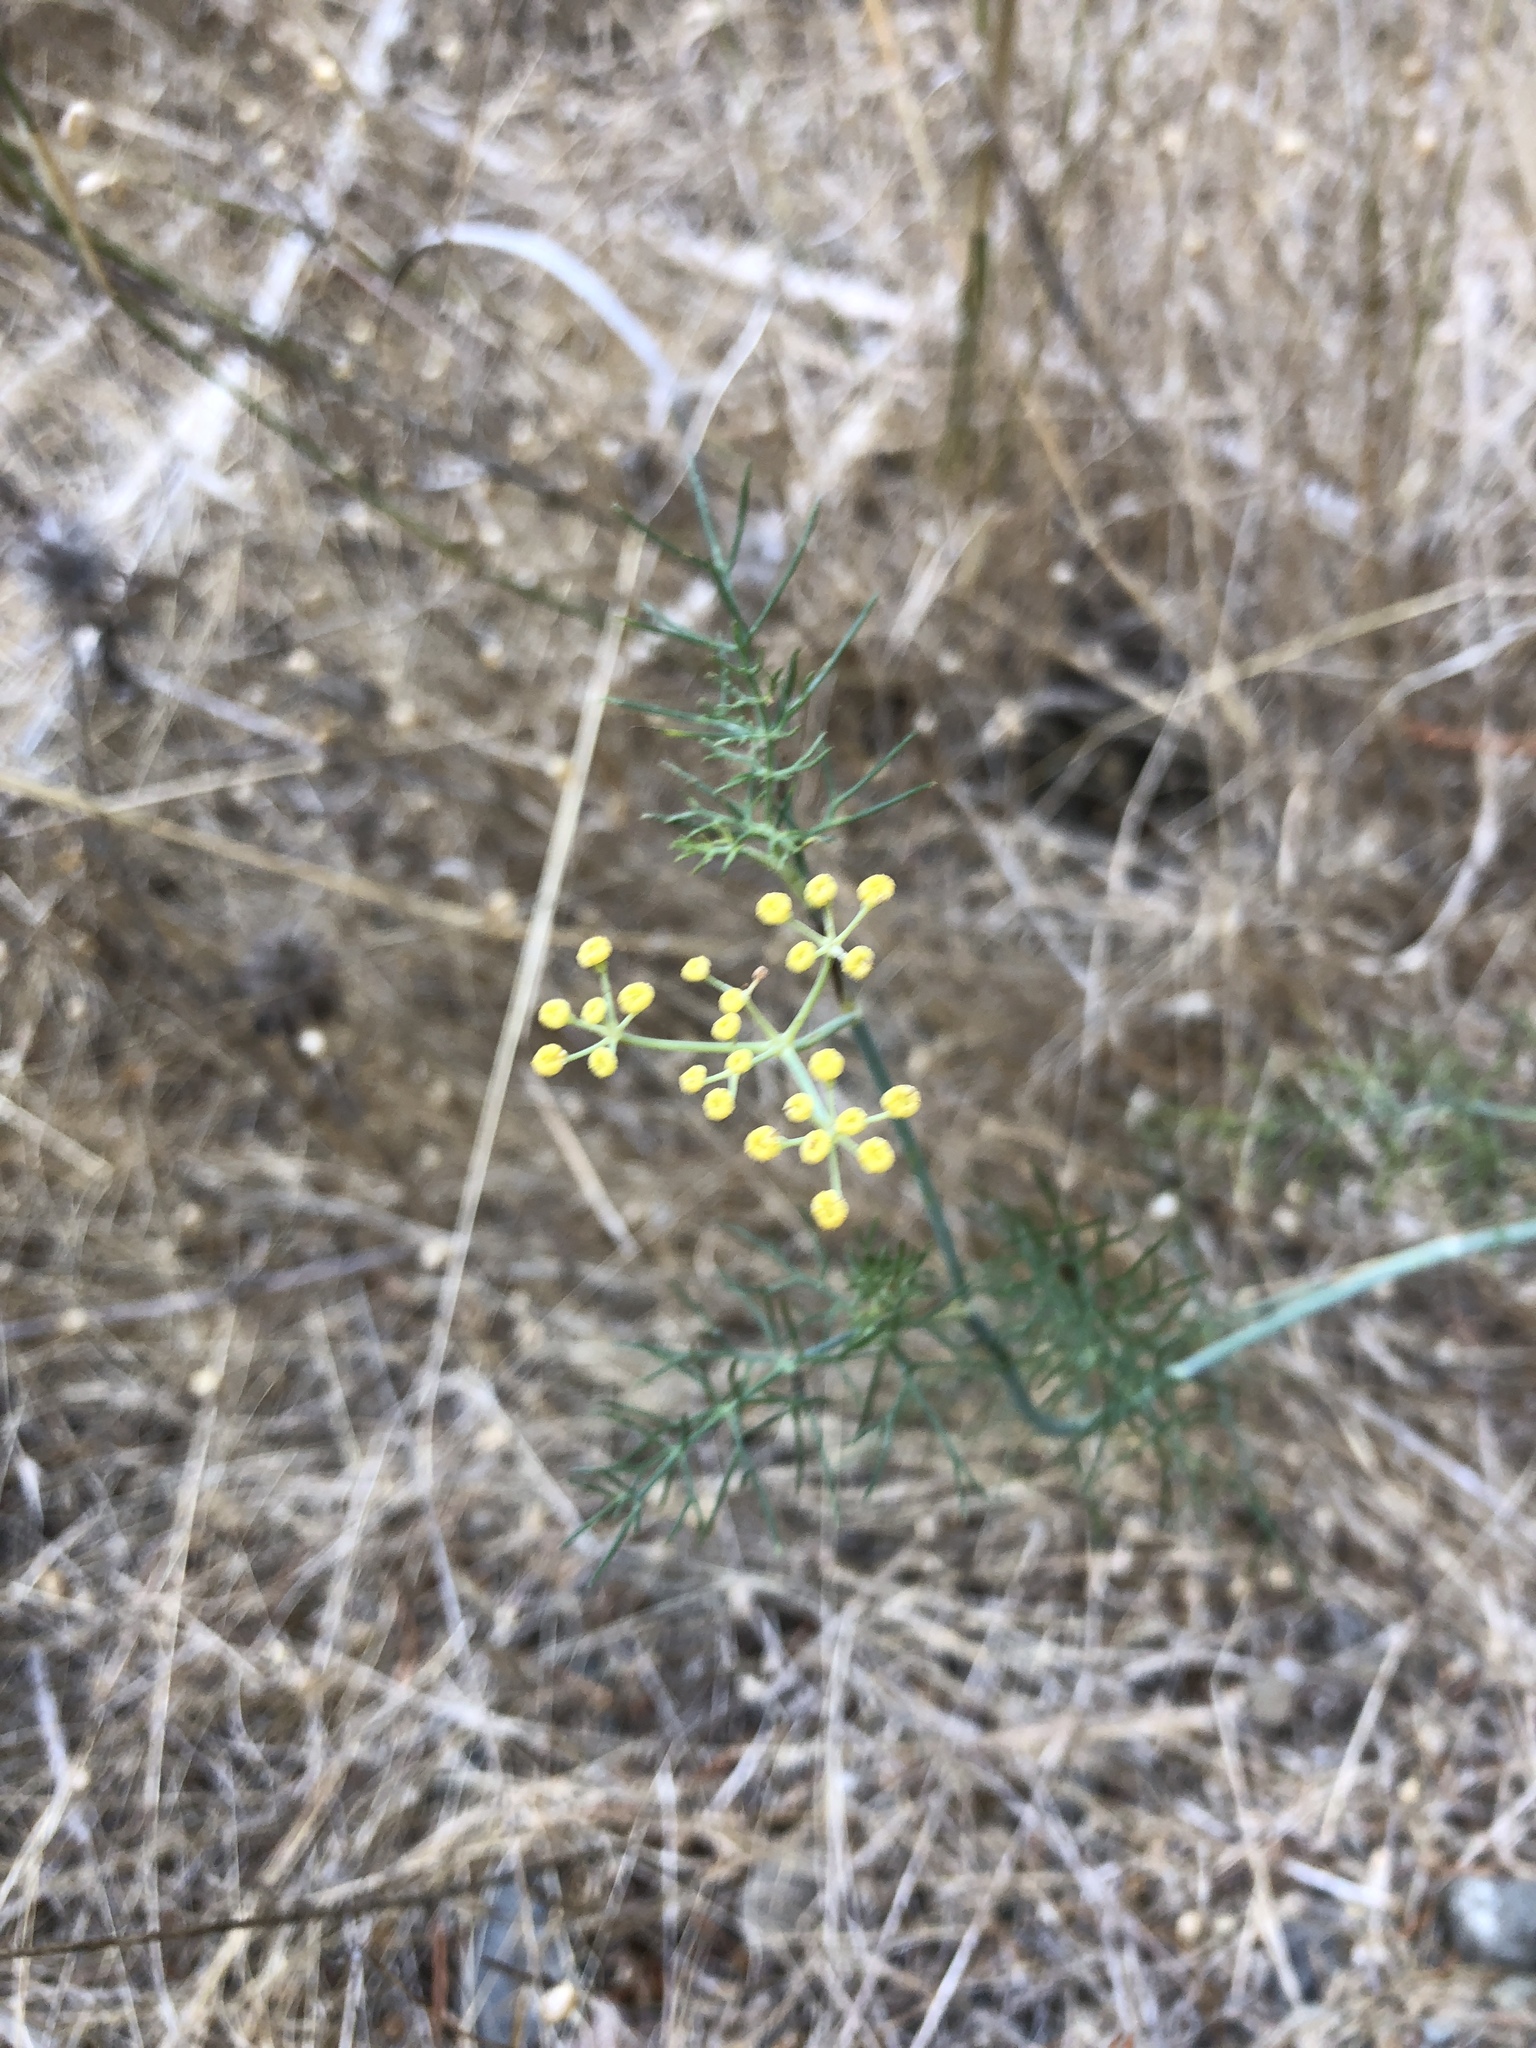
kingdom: Plantae
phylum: Tracheophyta
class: Magnoliopsida
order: Apiales
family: Apiaceae
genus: Foeniculum
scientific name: Foeniculum vulgare
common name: Fennel
